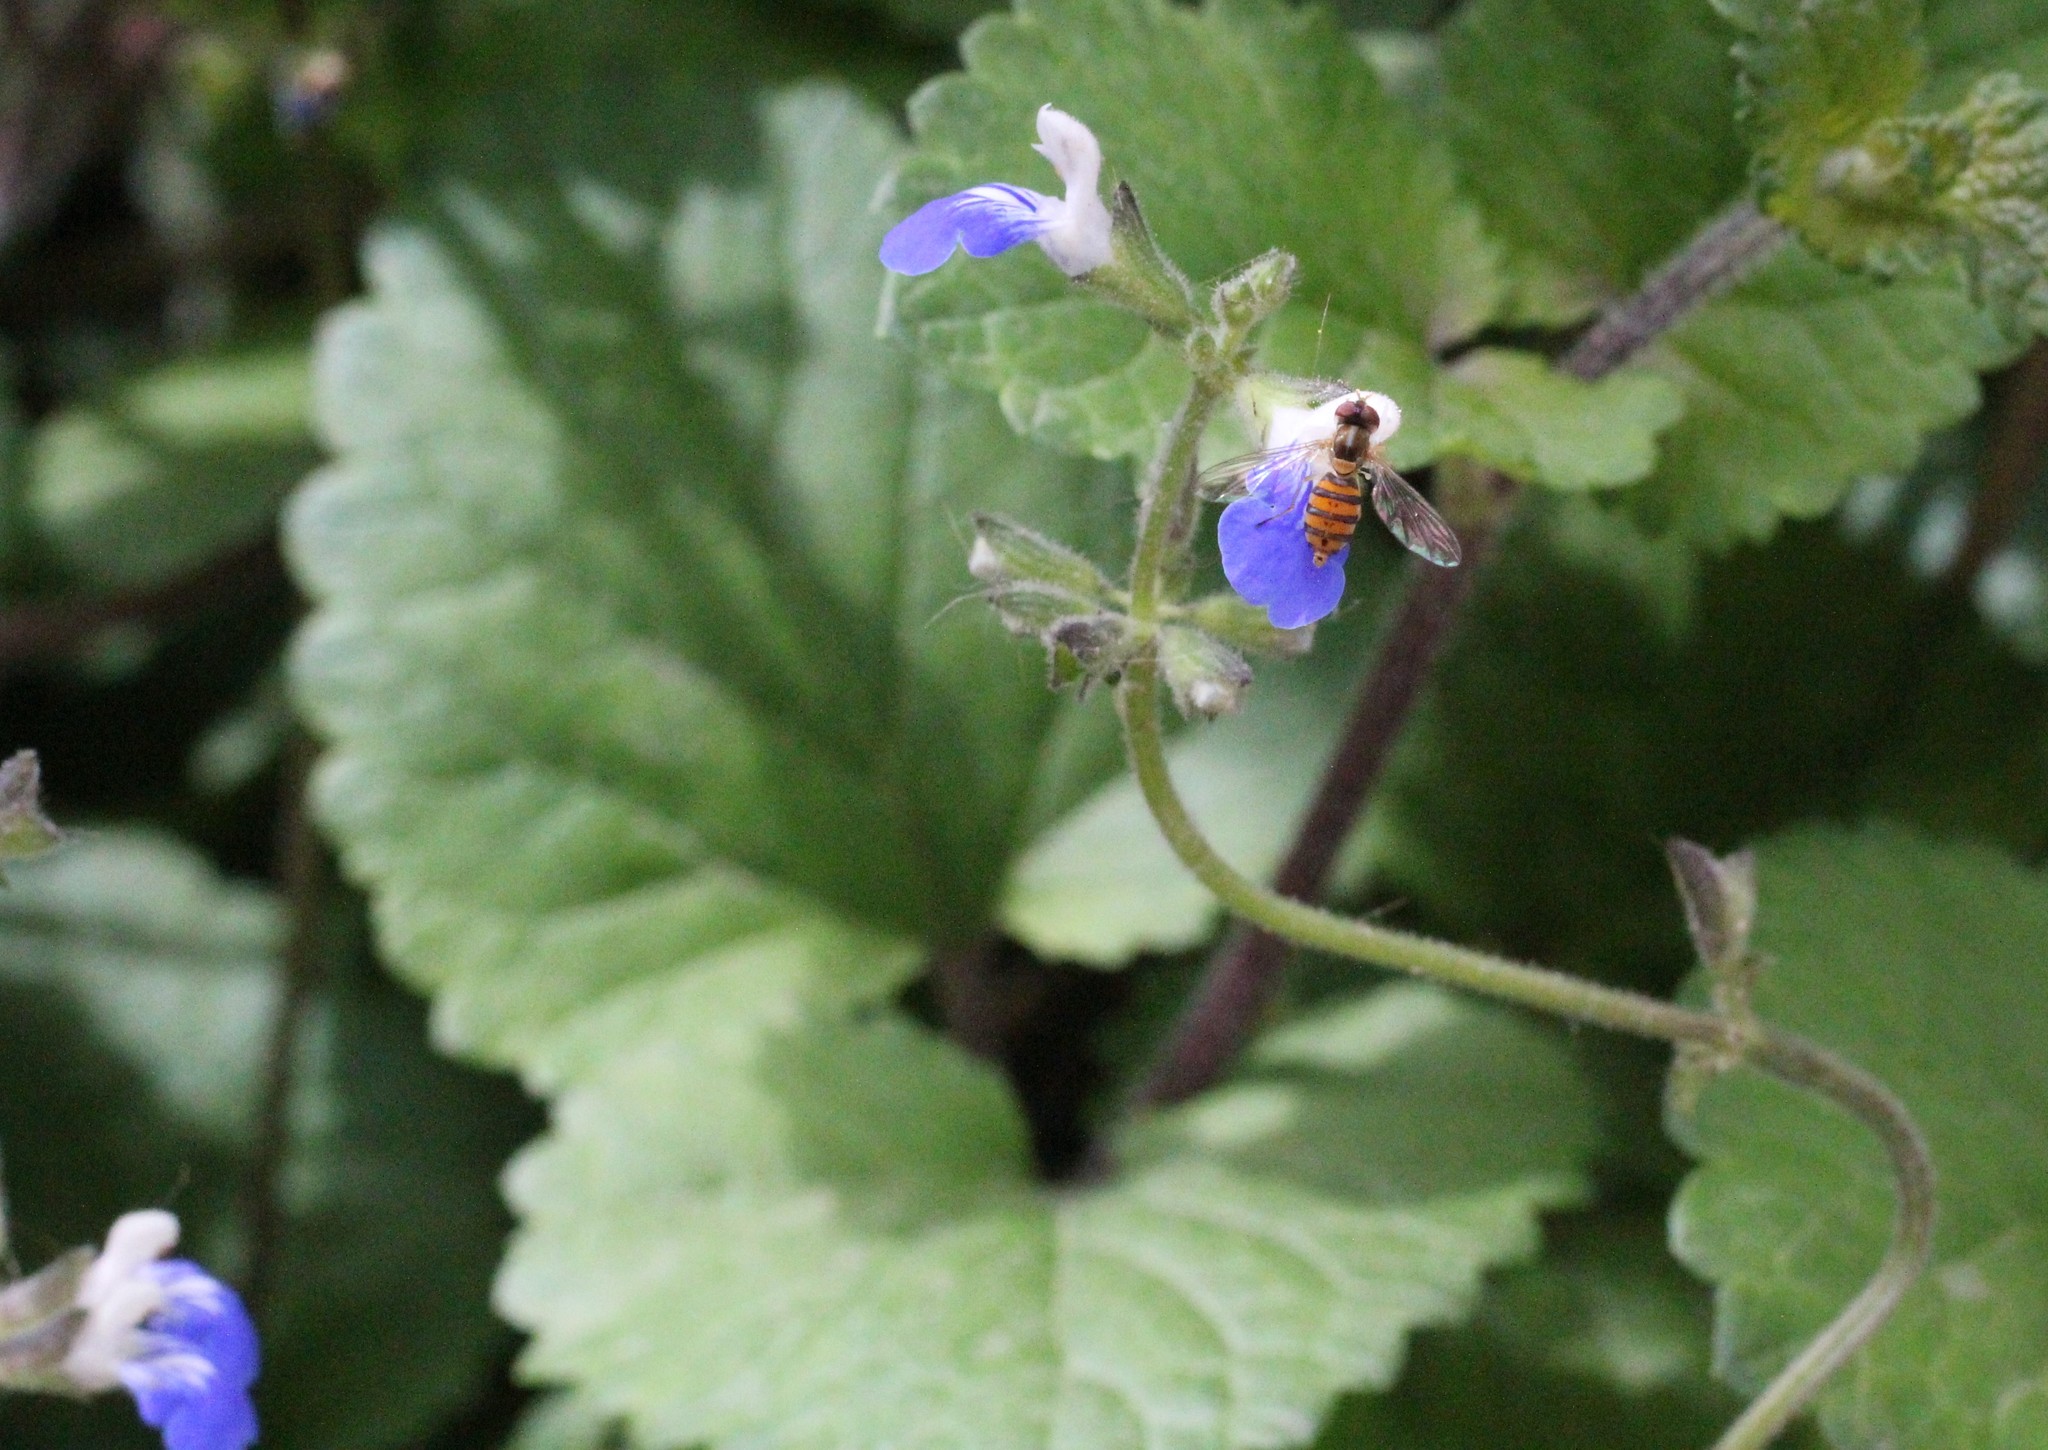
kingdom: Animalia
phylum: Arthropoda
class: Insecta
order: Diptera
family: Syrphidae
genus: Toxomerus
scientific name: Toxomerus
